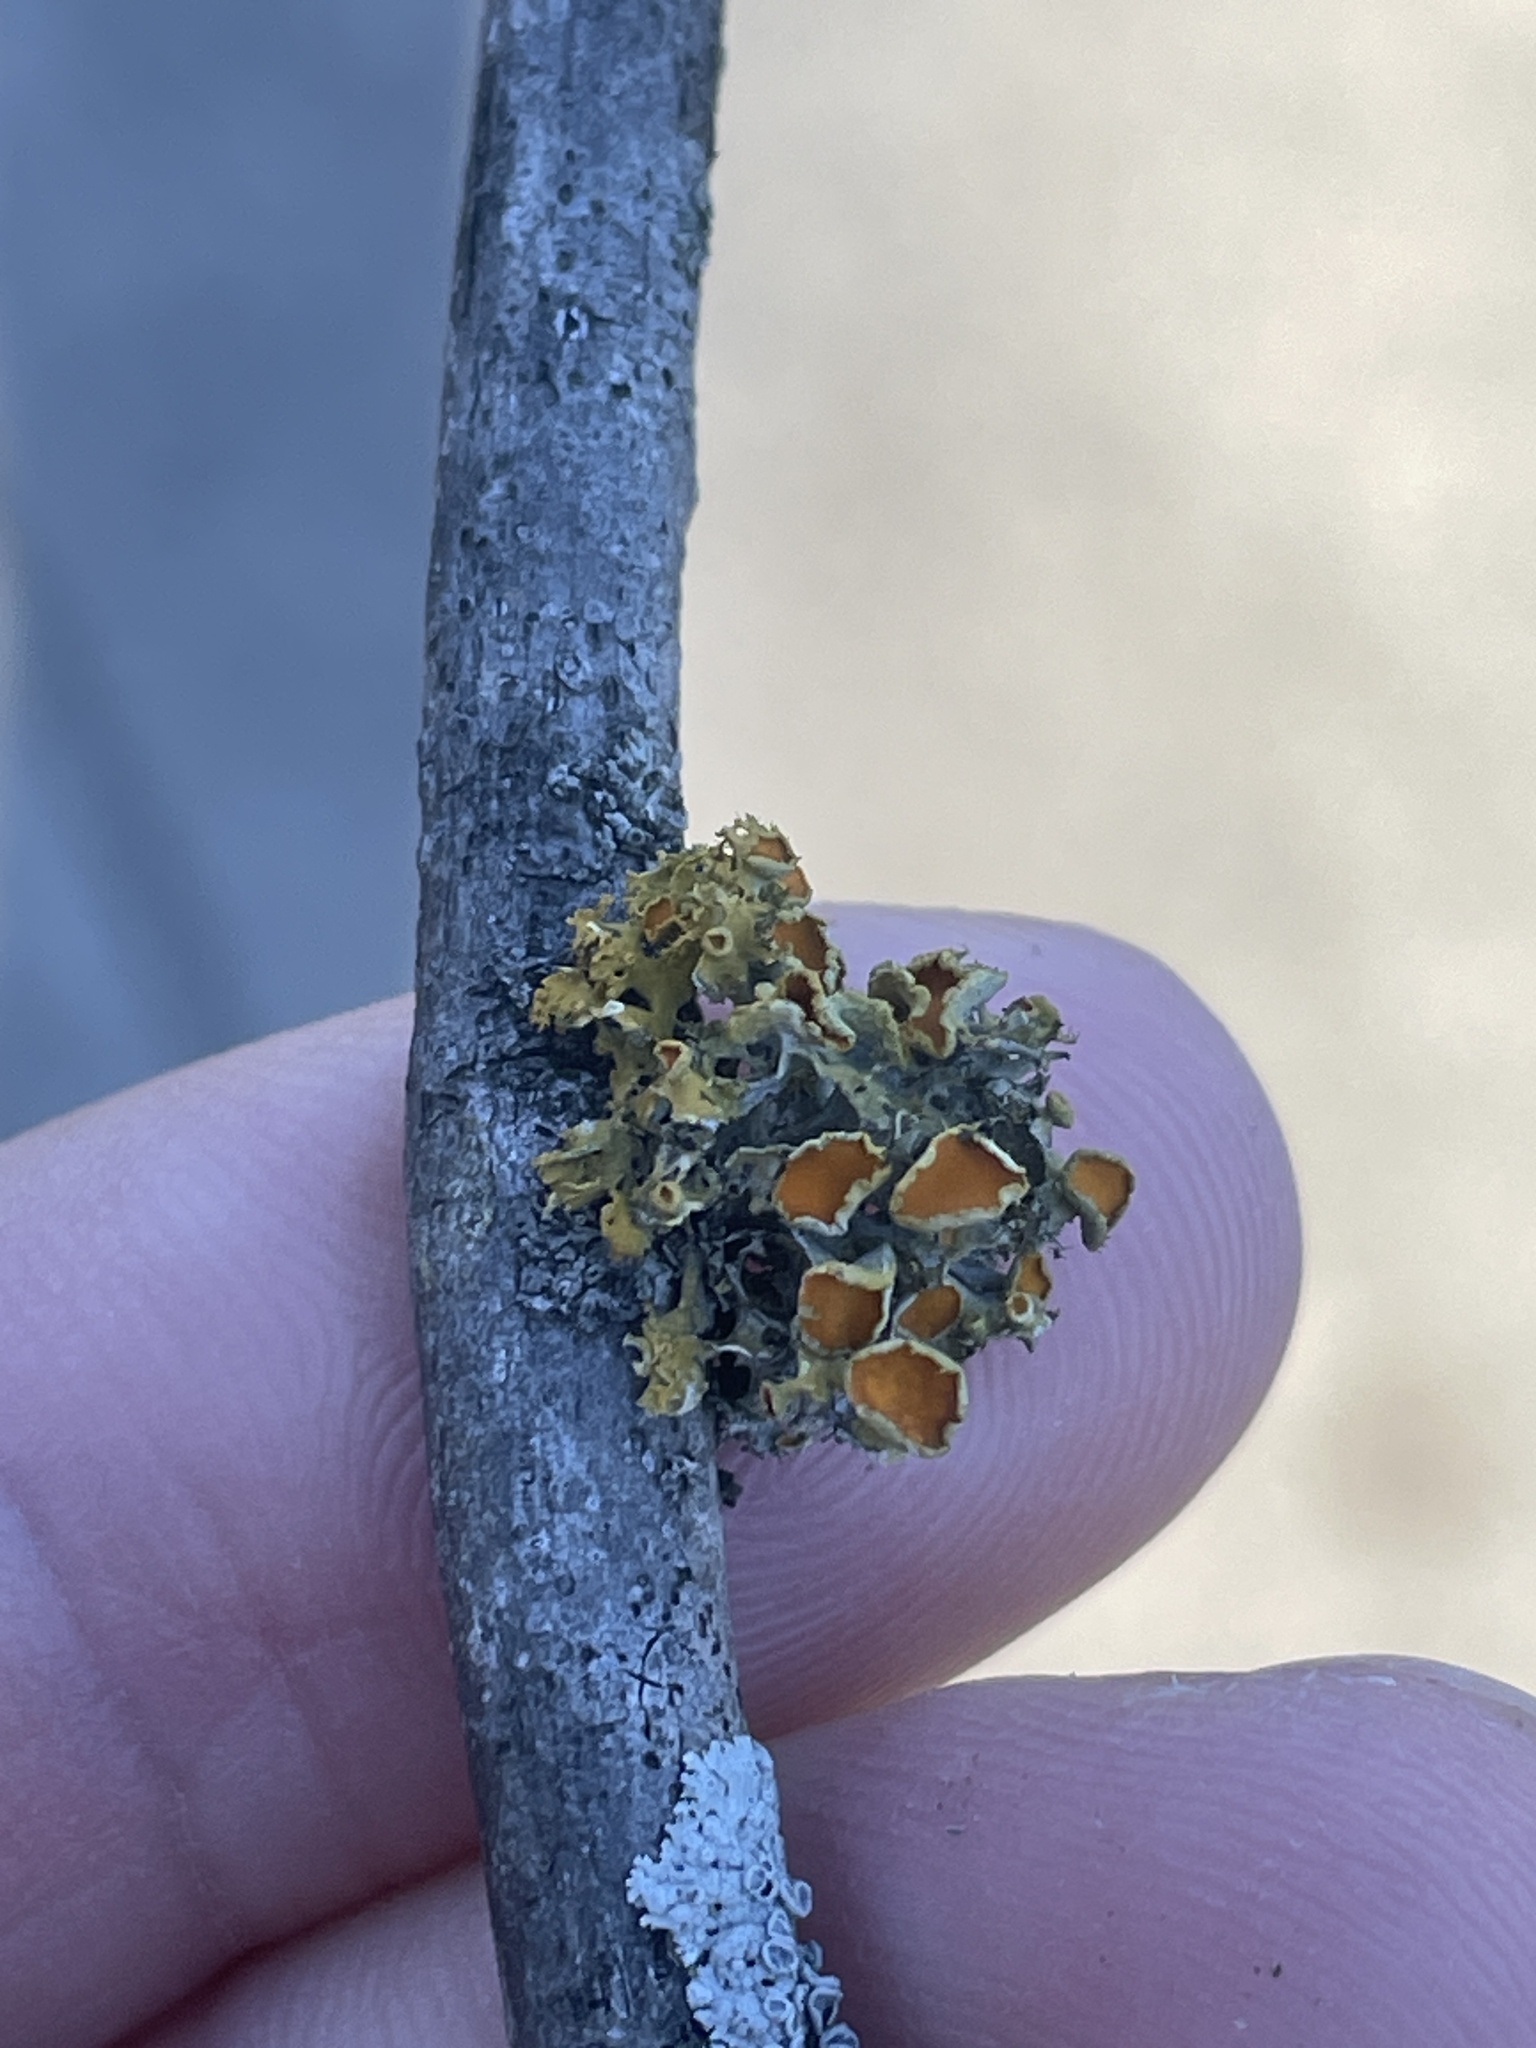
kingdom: Fungi
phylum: Ascomycota
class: Lecanoromycetes
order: Teloschistales
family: Teloschistaceae
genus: Niorma
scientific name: Niorma chrysophthalma
